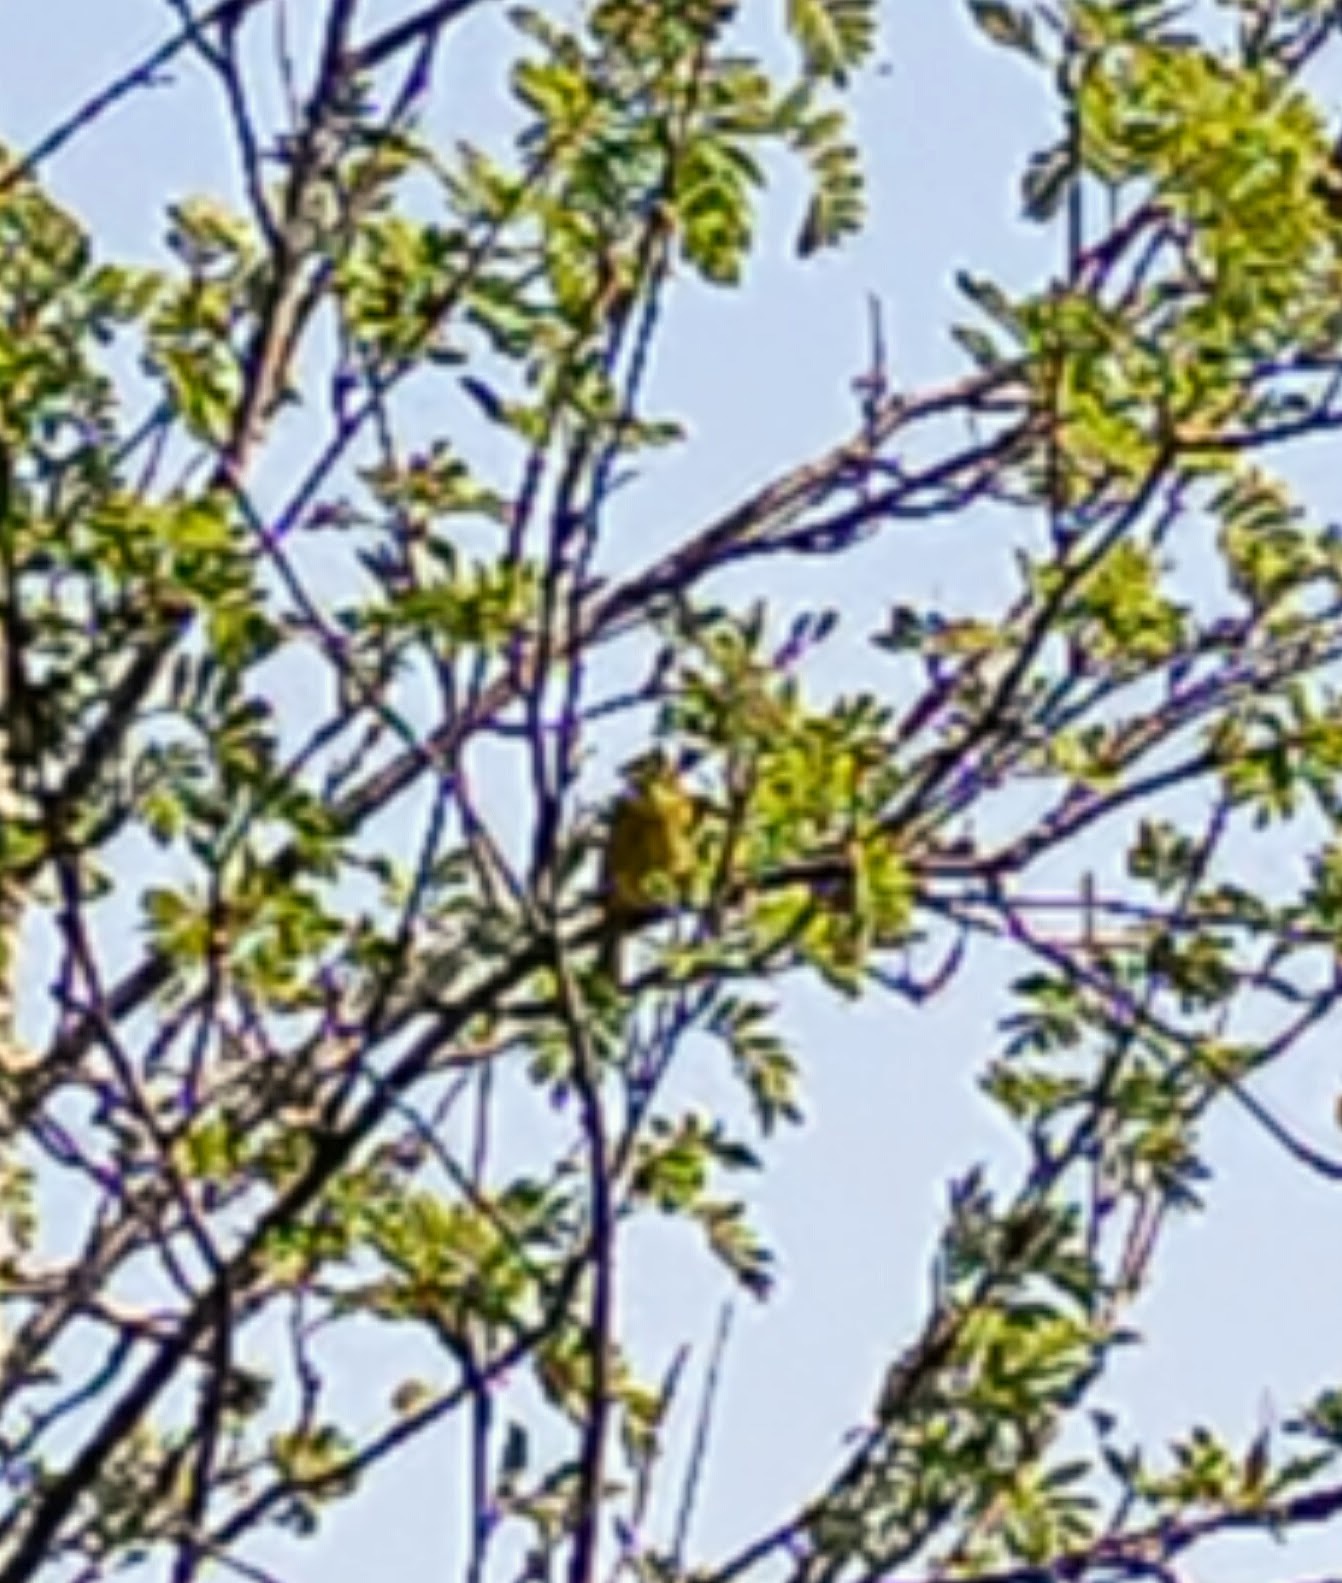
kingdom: Animalia
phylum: Chordata
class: Aves
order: Passeriformes
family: Emberizidae
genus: Emberiza
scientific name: Emberiza citrinella
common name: Yellowhammer
